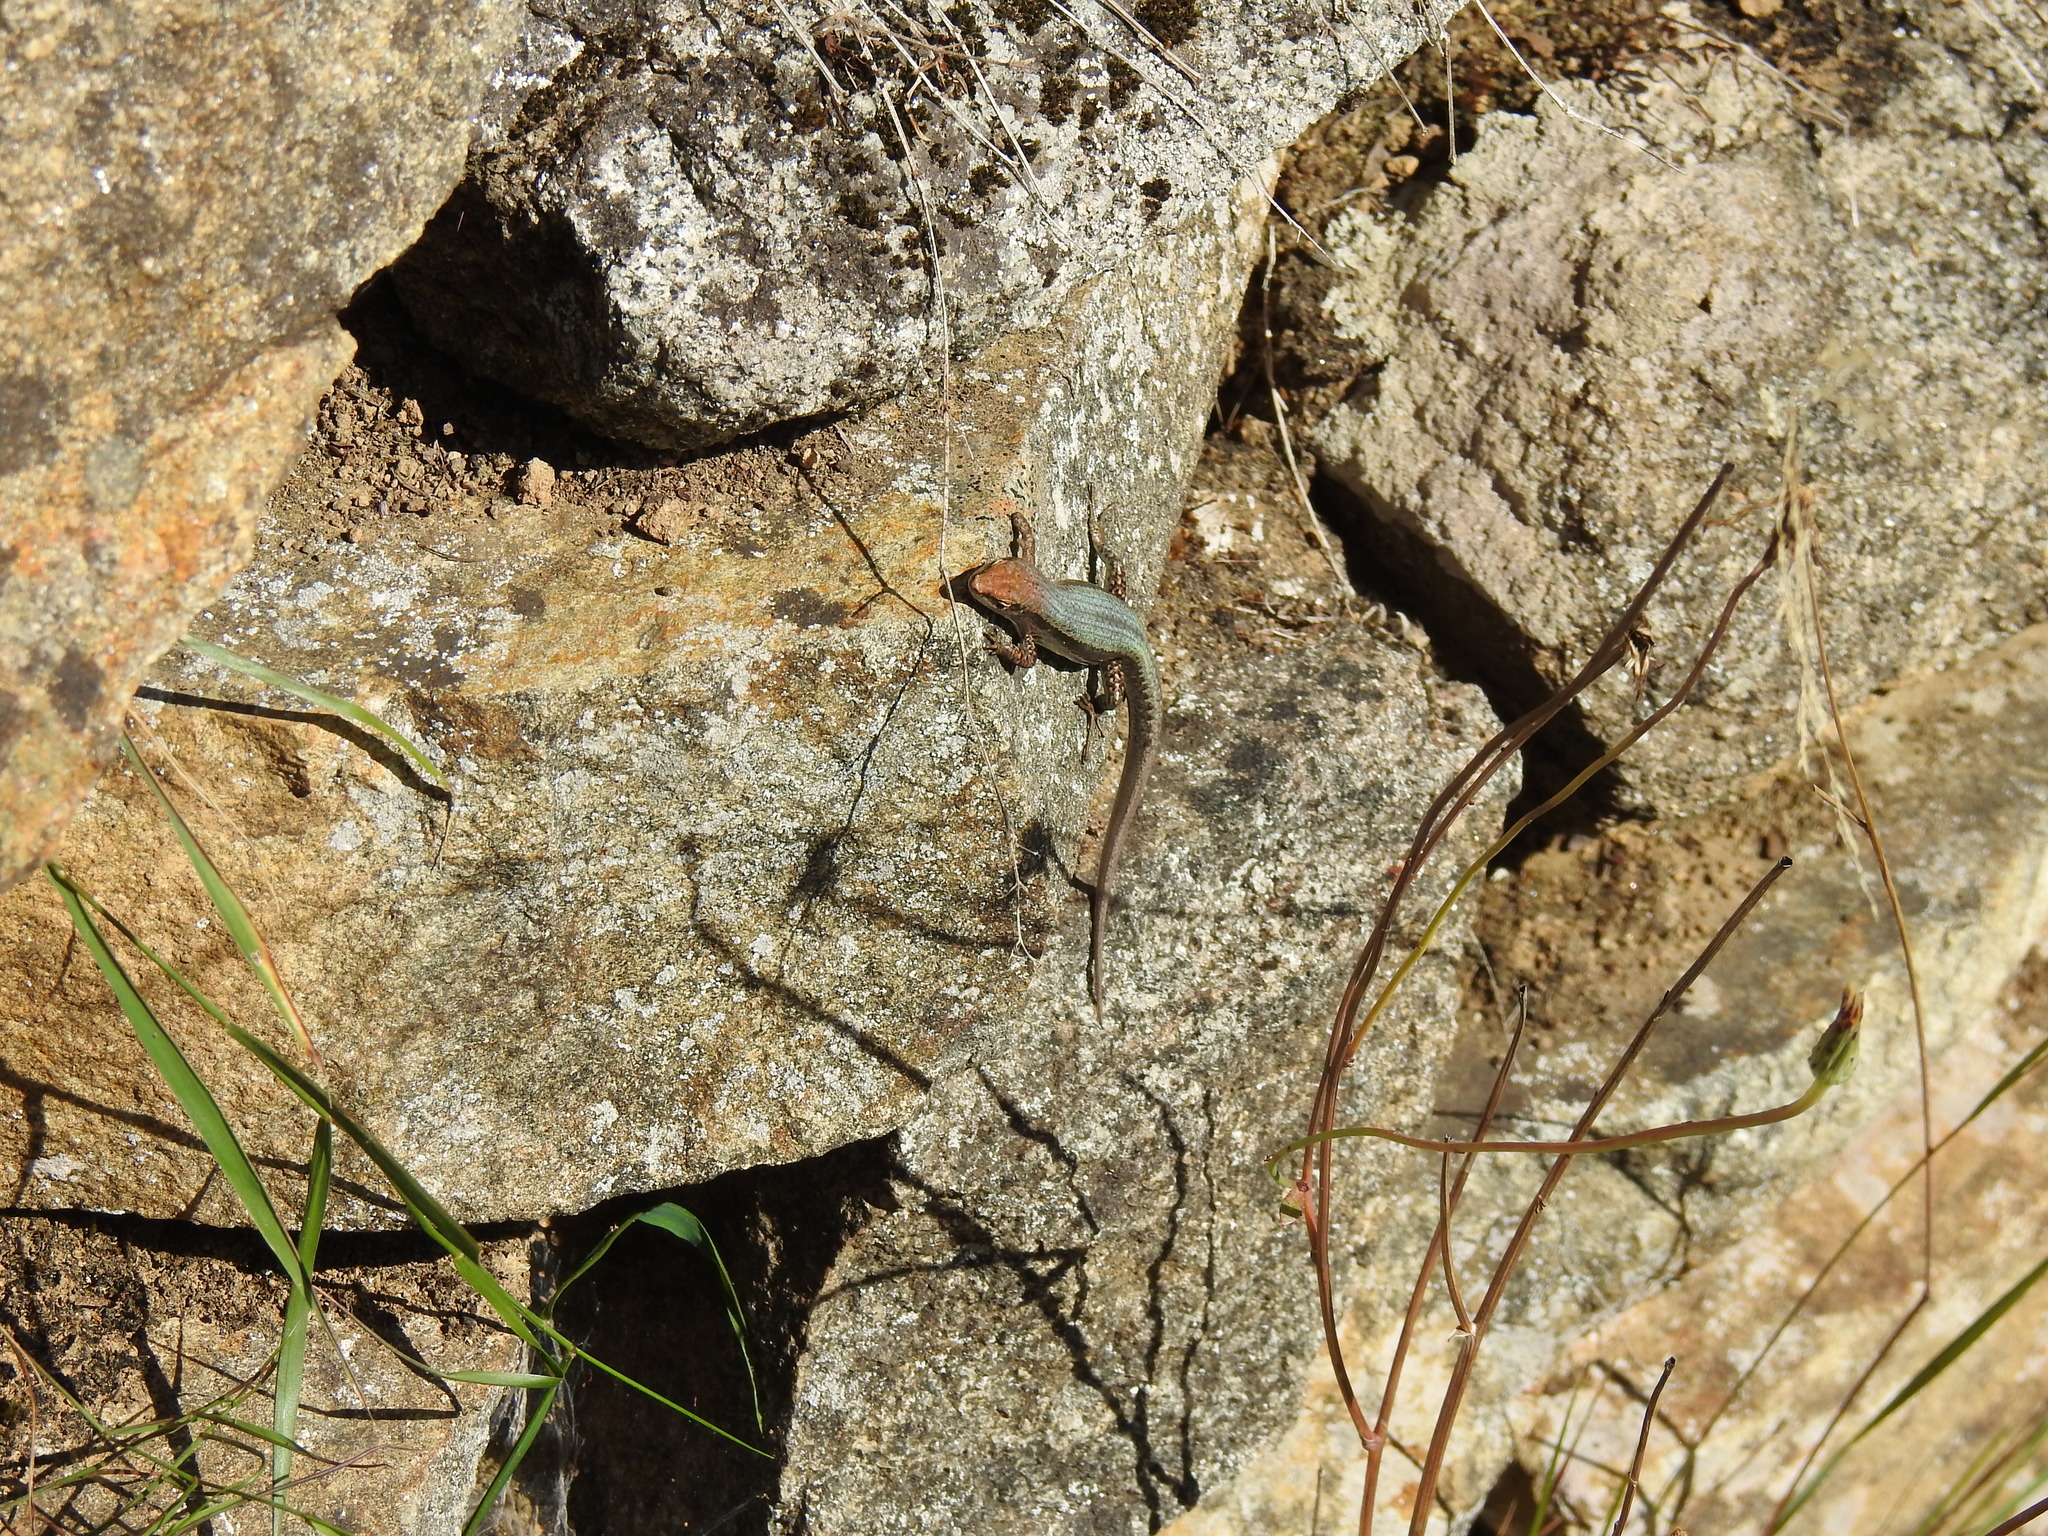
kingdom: Animalia
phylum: Chordata
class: Squamata
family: Scincidae
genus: Lampropholis
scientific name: Lampropholis guichenoti
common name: Garden skink
